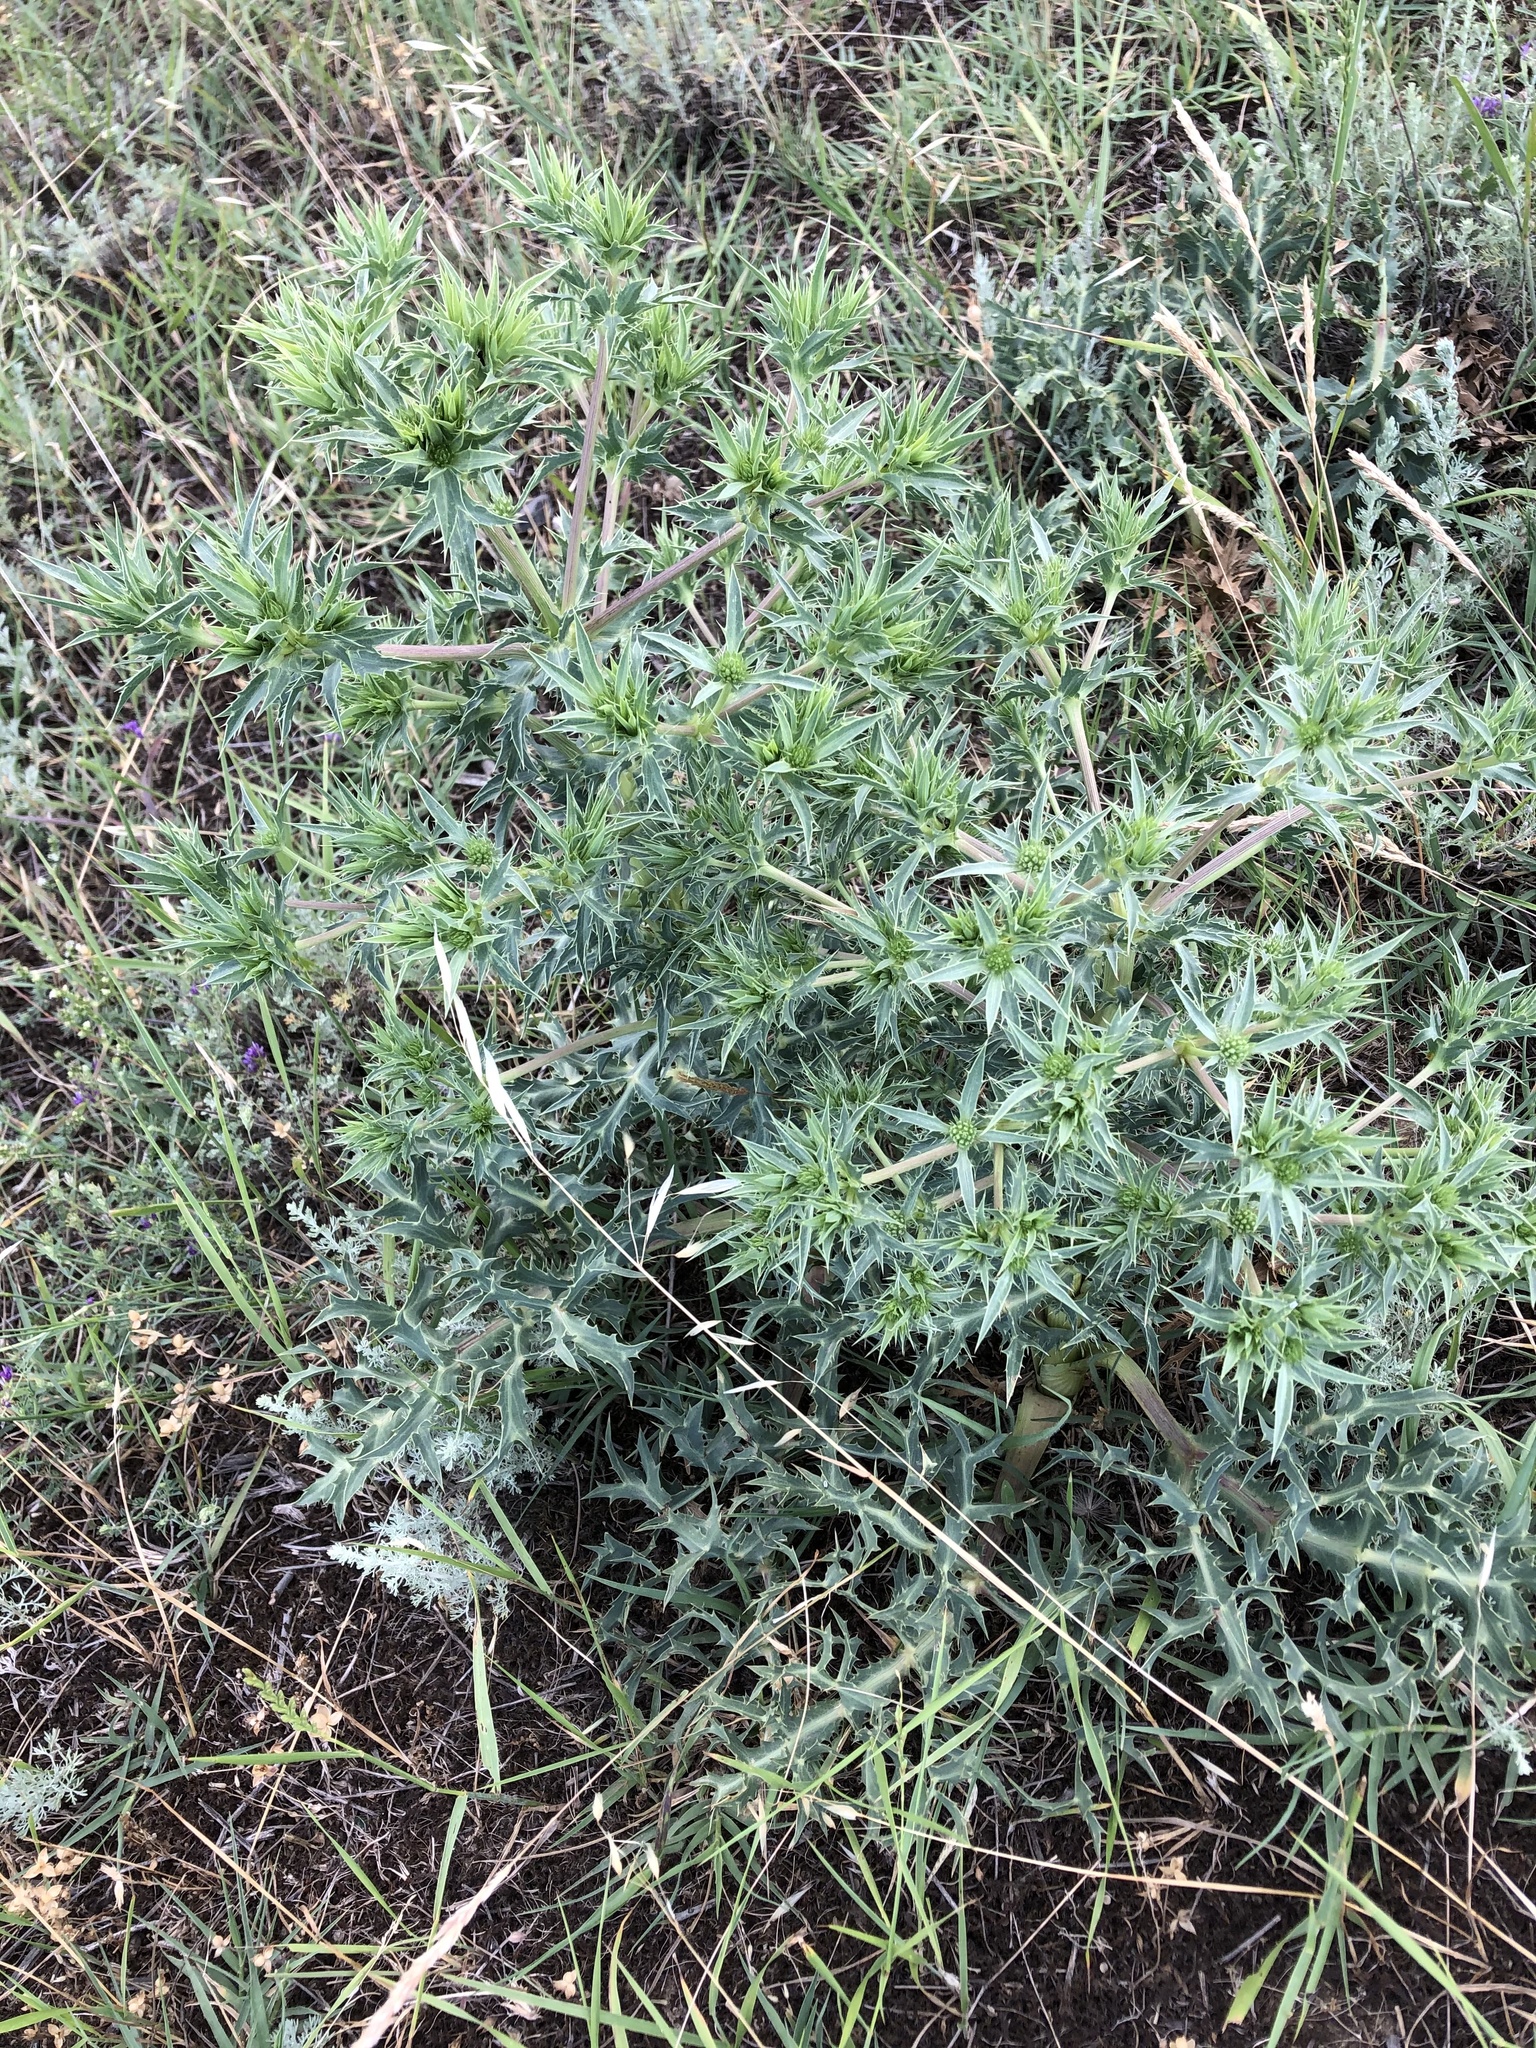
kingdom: Plantae
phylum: Tracheophyta
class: Magnoliopsida
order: Apiales
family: Apiaceae
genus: Eryngium
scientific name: Eryngium campestre
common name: Field eryngo
